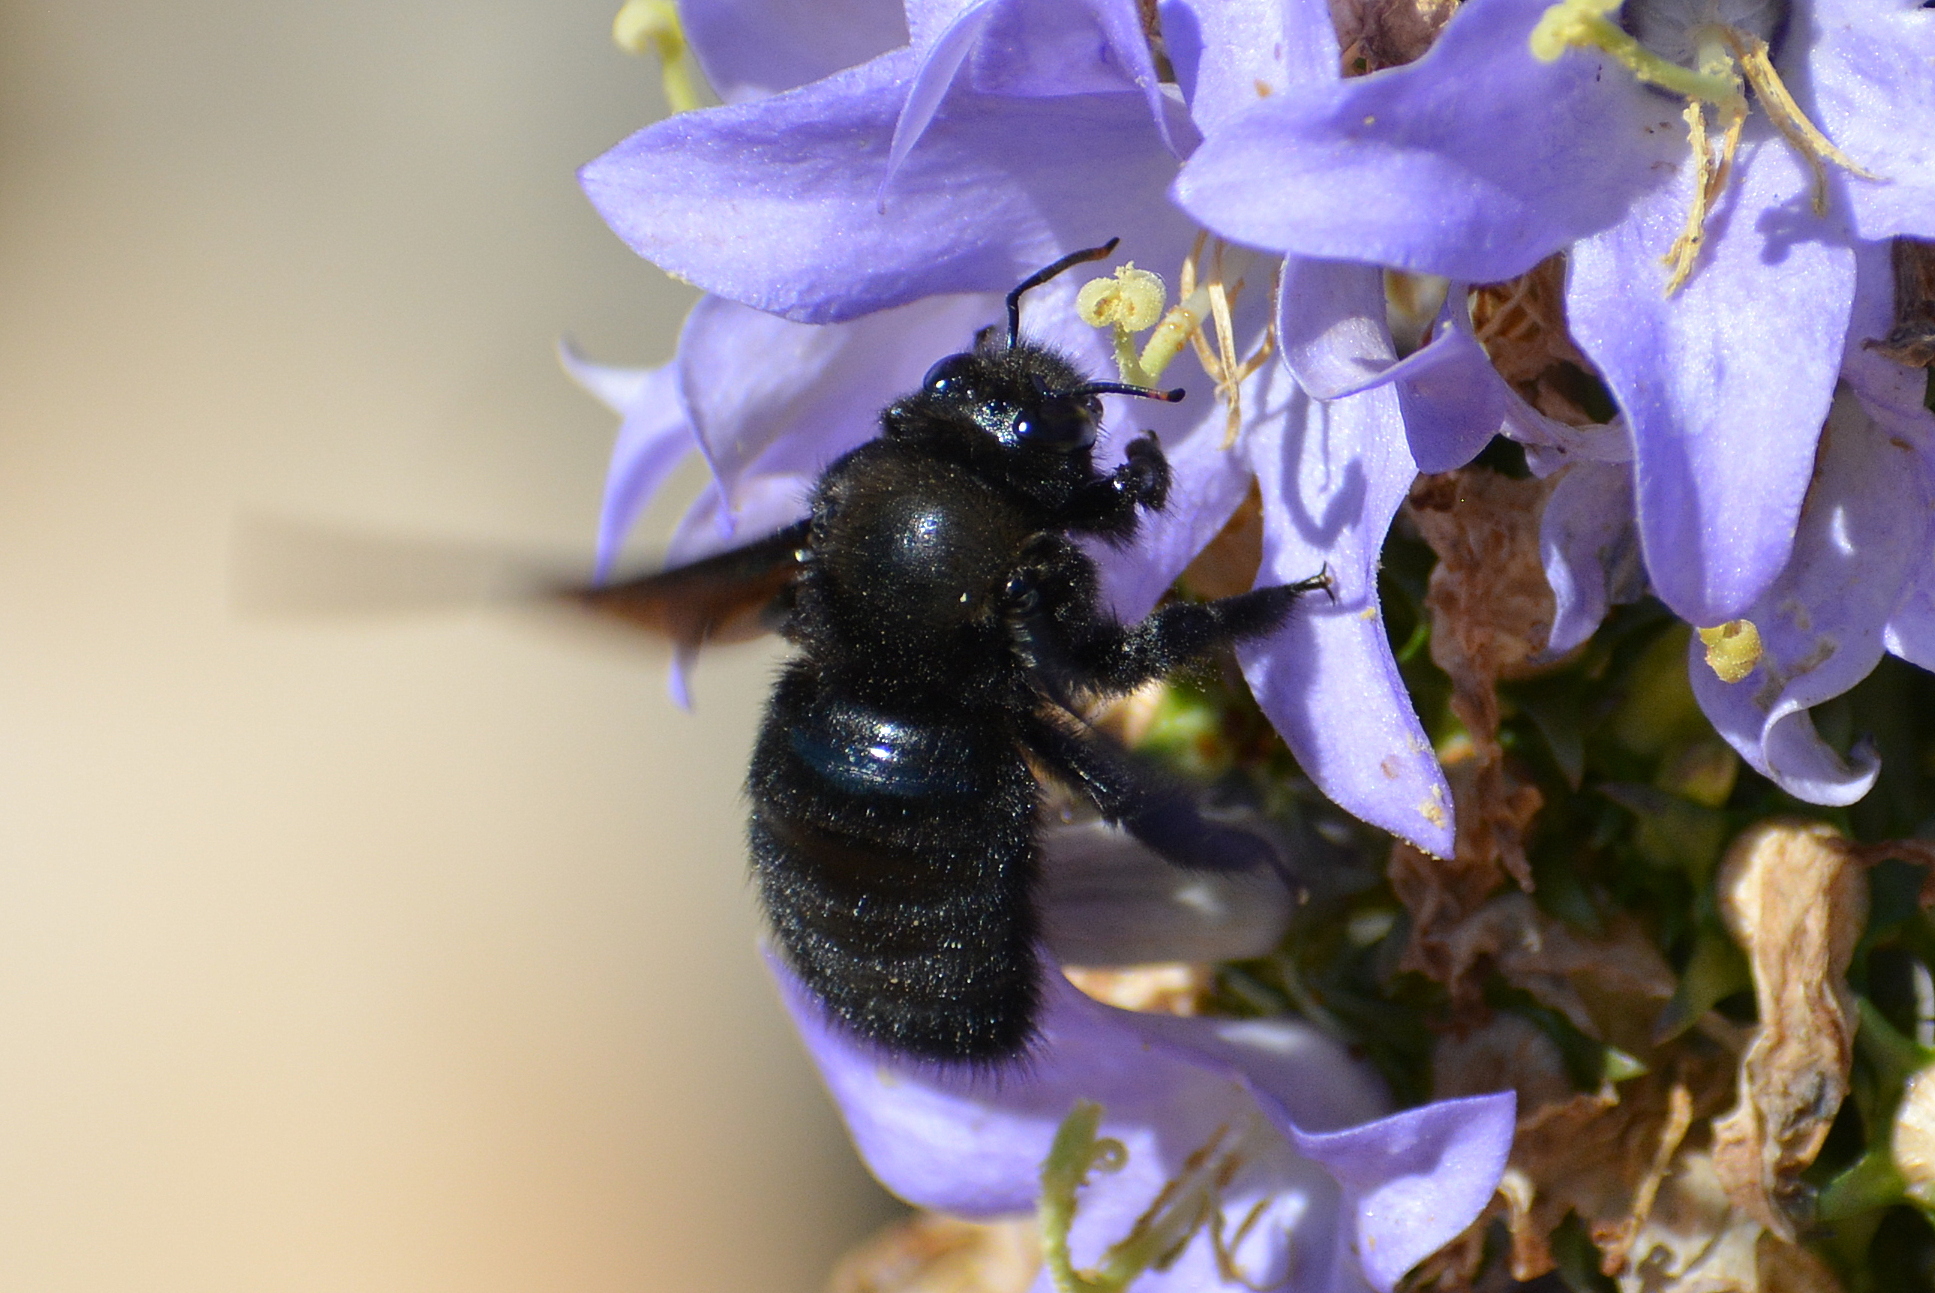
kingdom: Animalia
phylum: Arthropoda
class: Insecta
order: Hymenoptera
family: Apidae
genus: Xylocopa
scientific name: Xylocopa violacea
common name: Violet carpenter bee
